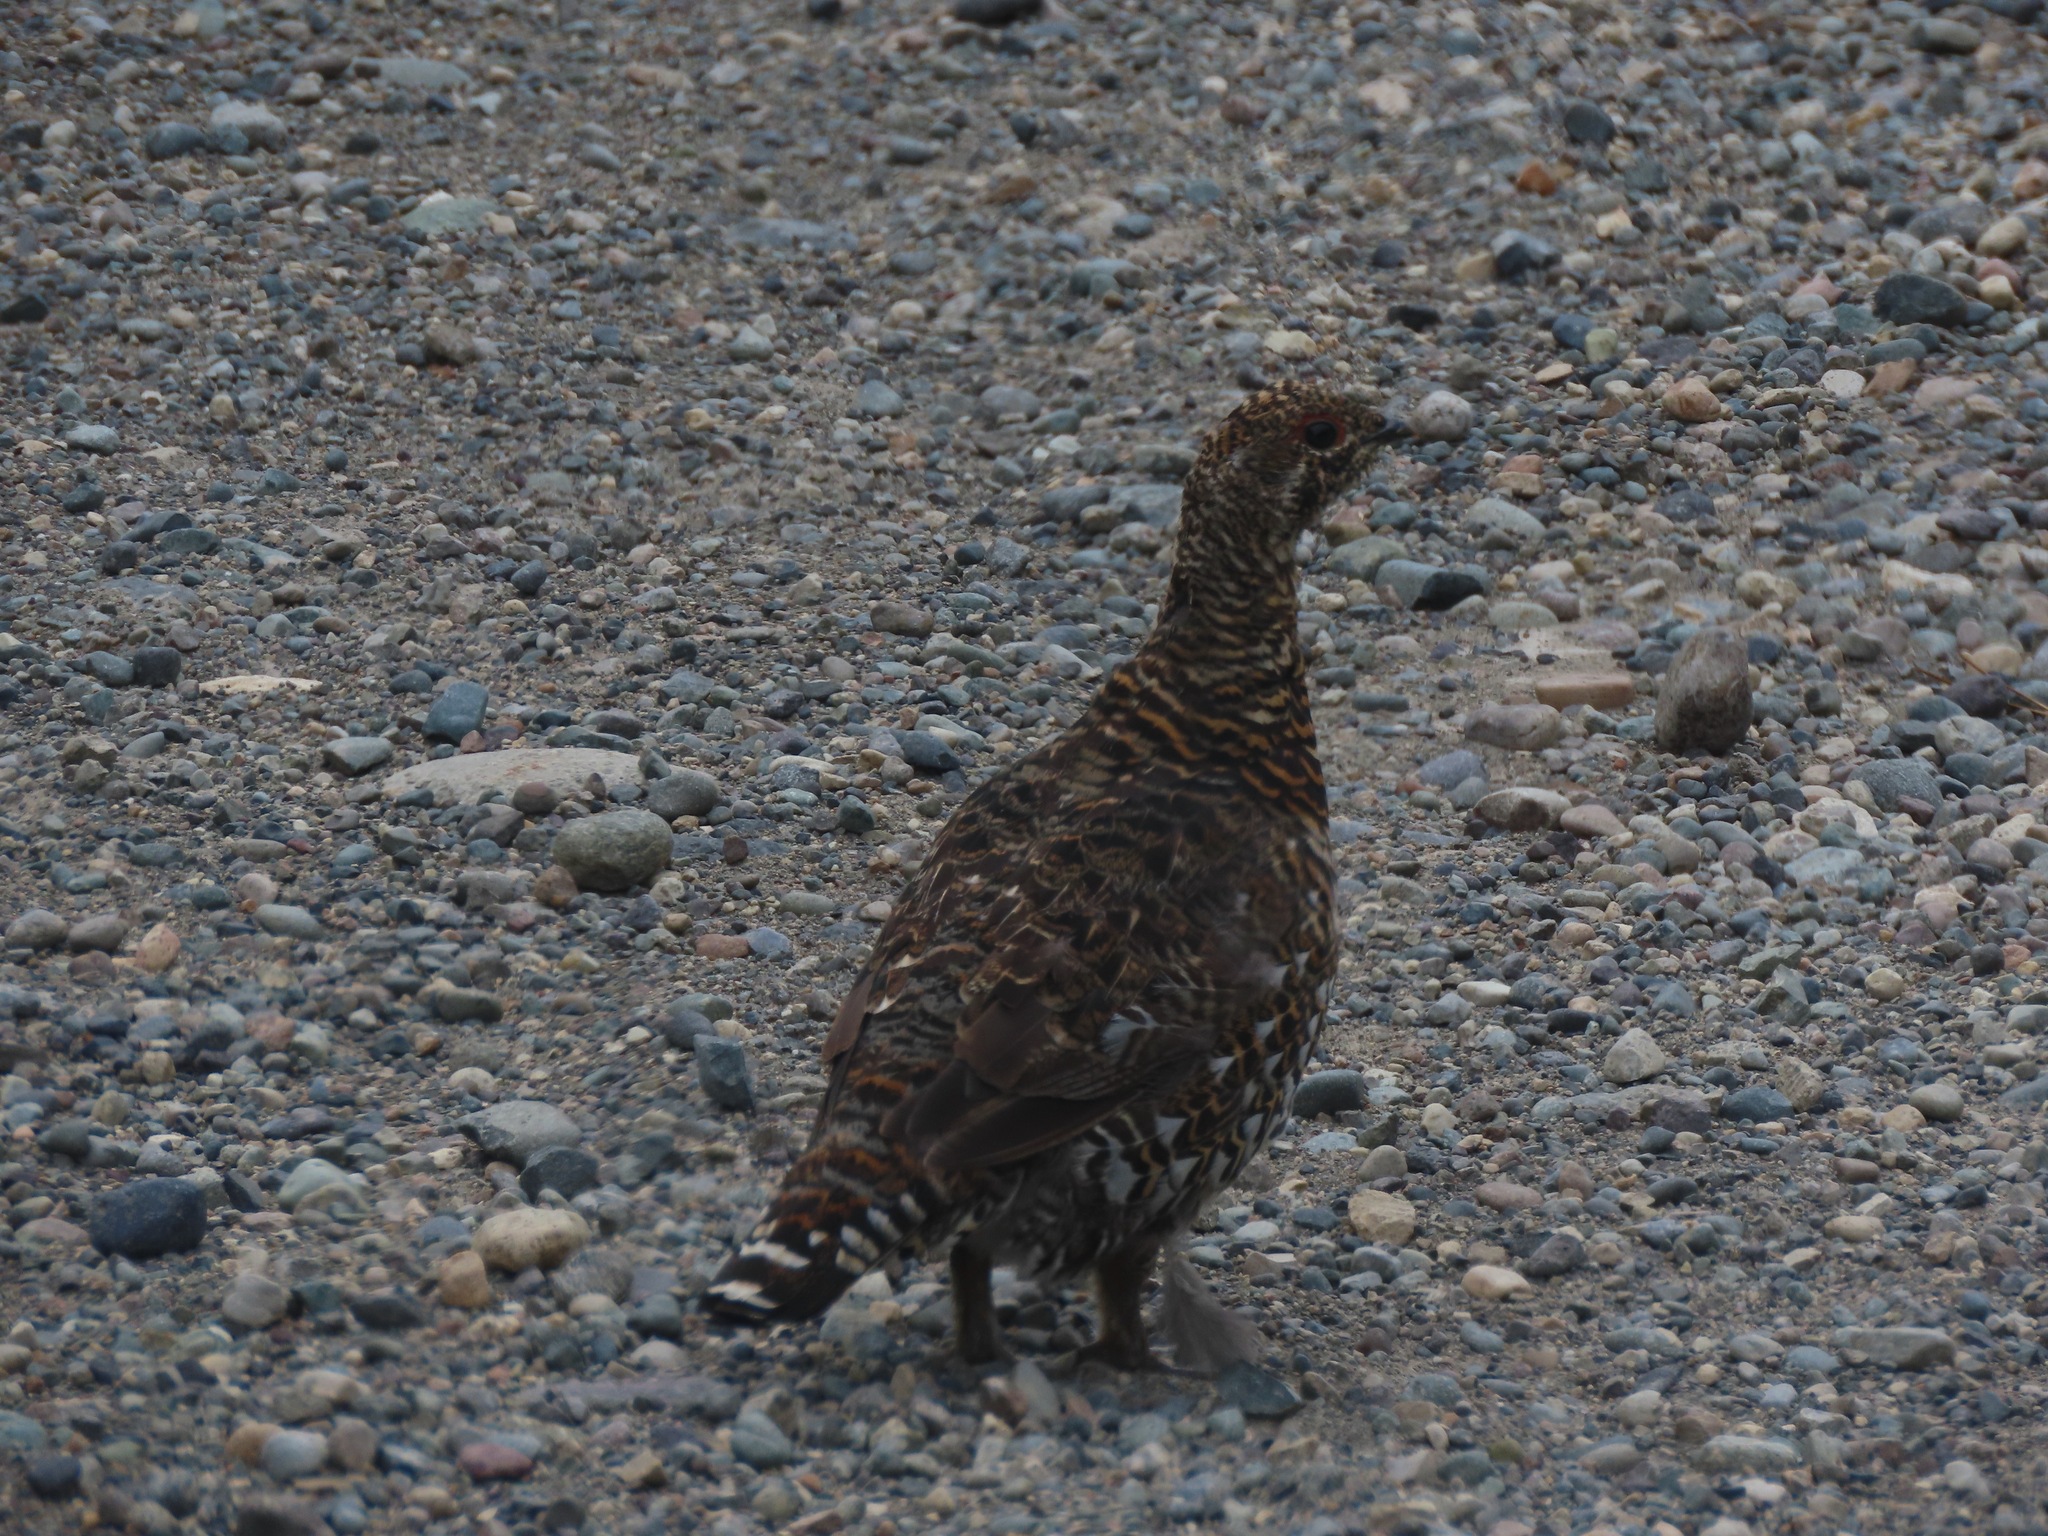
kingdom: Animalia
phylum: Chordata
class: Aves
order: Galliformes
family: Phasianidae
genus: Canachites
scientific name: Canachites canadensis
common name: Spruce grouse
